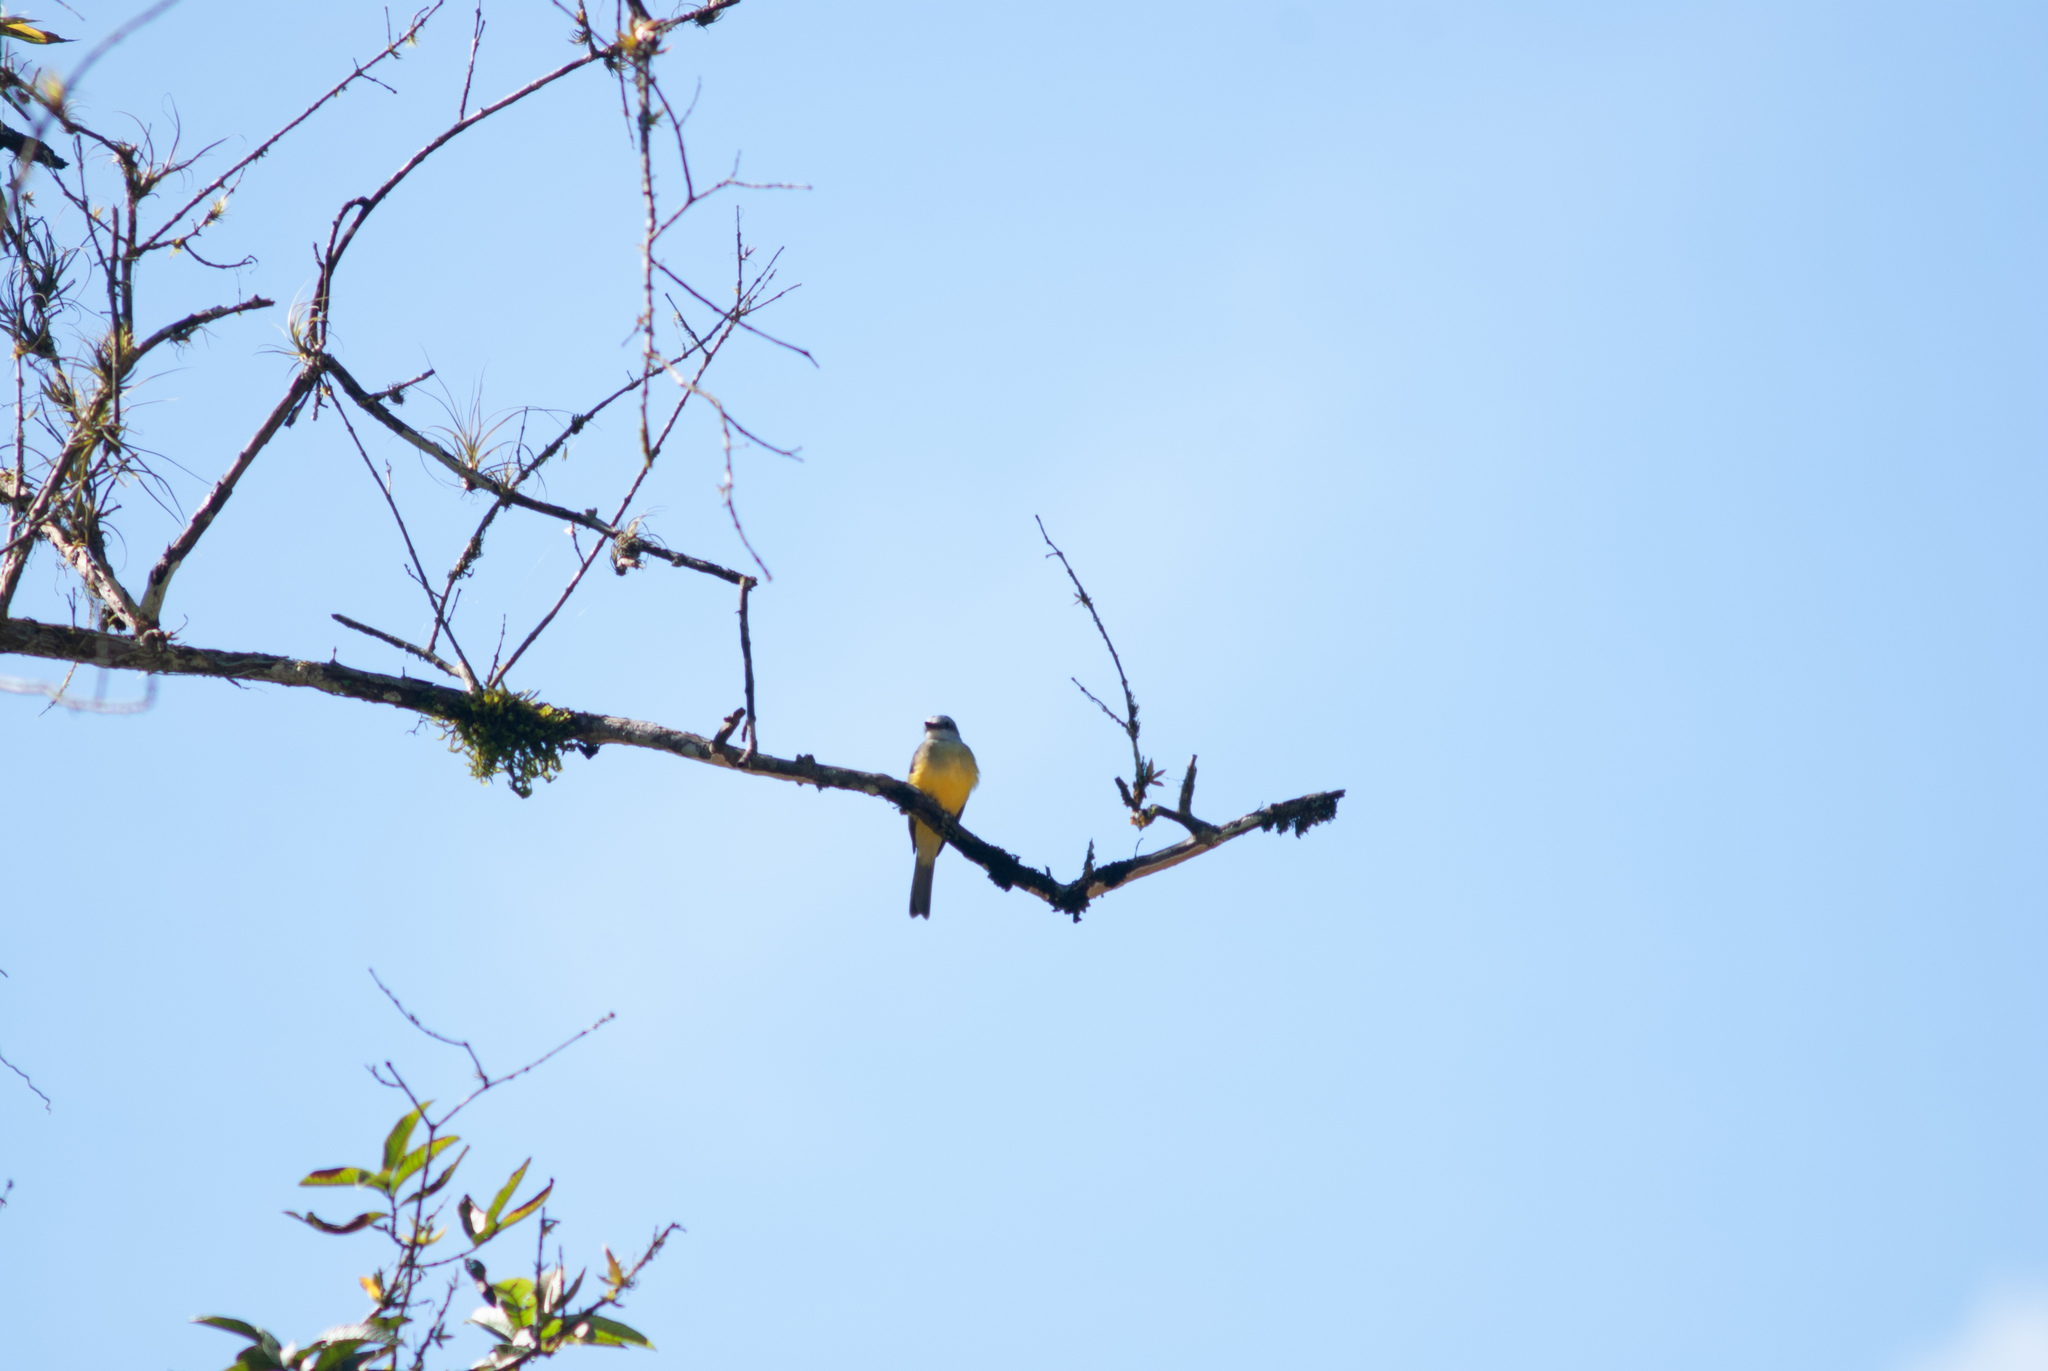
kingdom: Animalia
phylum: Chordata
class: Aves
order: Passeriformes
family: Tyrannidae
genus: Tyrannus
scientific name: Tyrannus melancholicus
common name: Tropical kingbird
